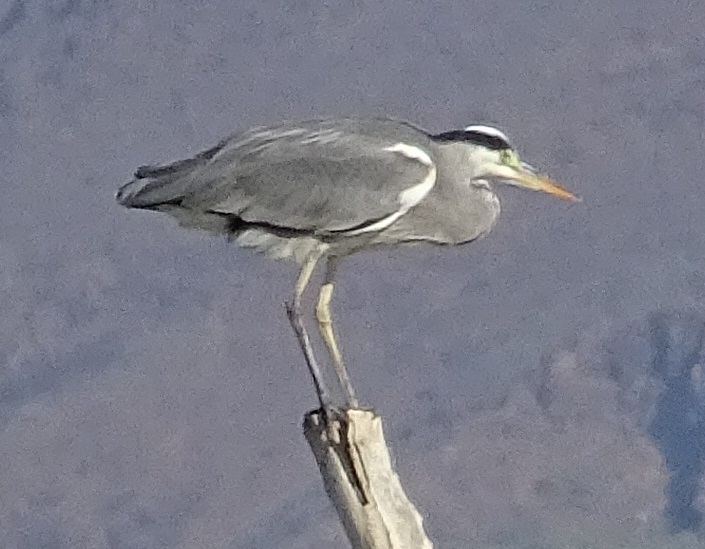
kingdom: Animalia
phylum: Chordata
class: Aves
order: Pelecaniformes
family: Ardeidae
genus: Ardea
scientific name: Ardea cinerea
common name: Grey heron
